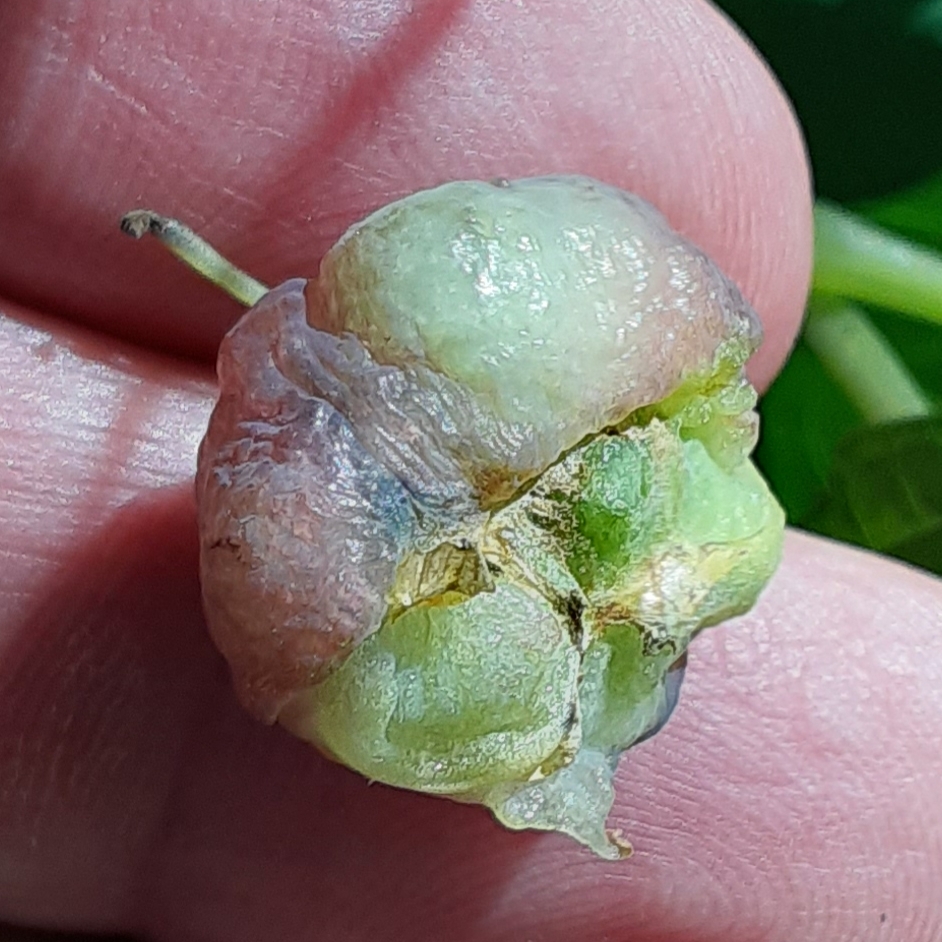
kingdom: Animalia
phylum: Arthropoda
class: Insecta
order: Diptera
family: Cecidomyiidae
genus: Schizomyia
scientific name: Schizomyia impatientis
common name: Jewelweed gall midge
